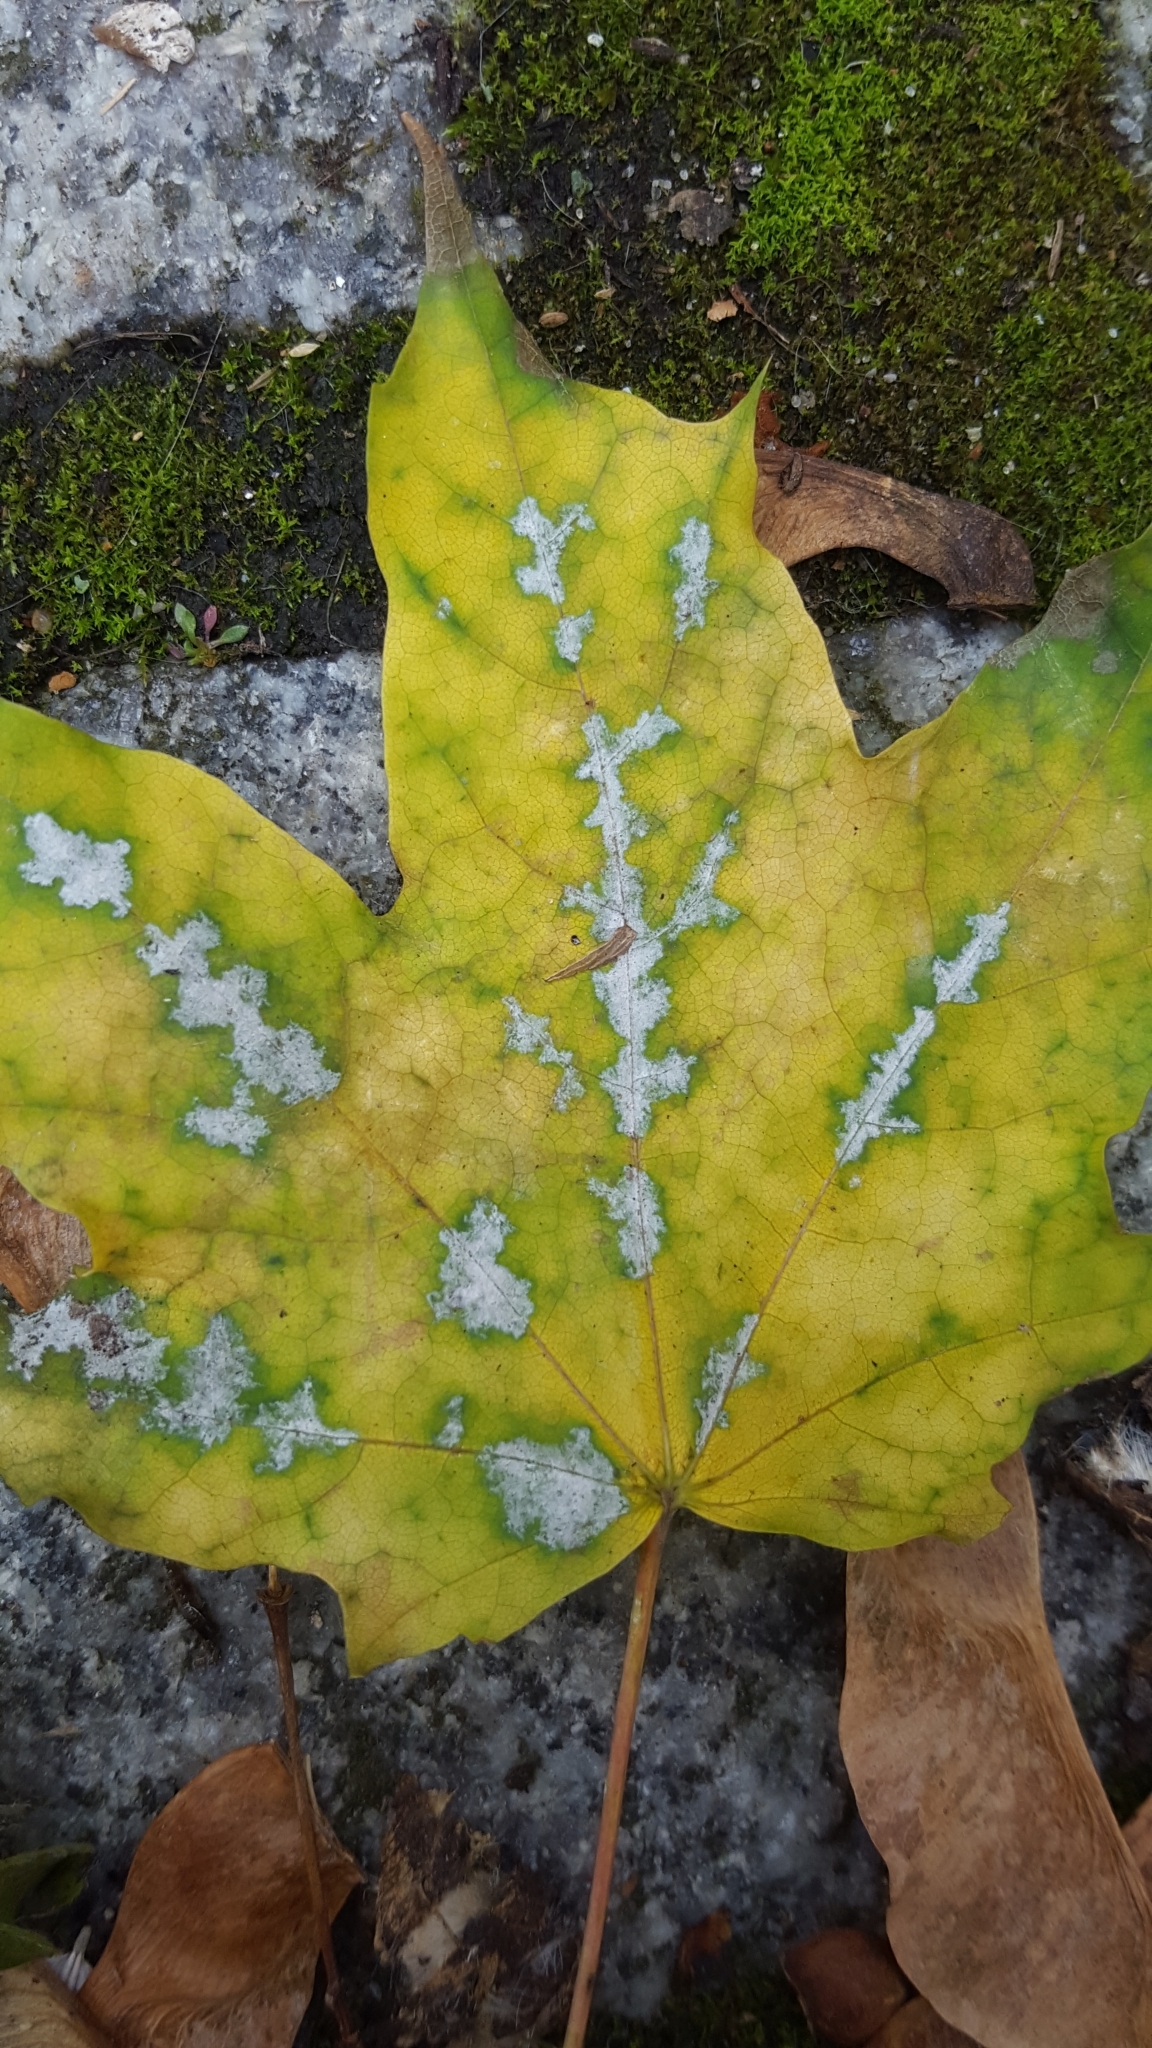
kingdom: Fungi
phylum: Ascomycota
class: Leotiomycetes
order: Helotiales
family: Erysiphaceae
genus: Sawadaea
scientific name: Sawadaea tulasnei
